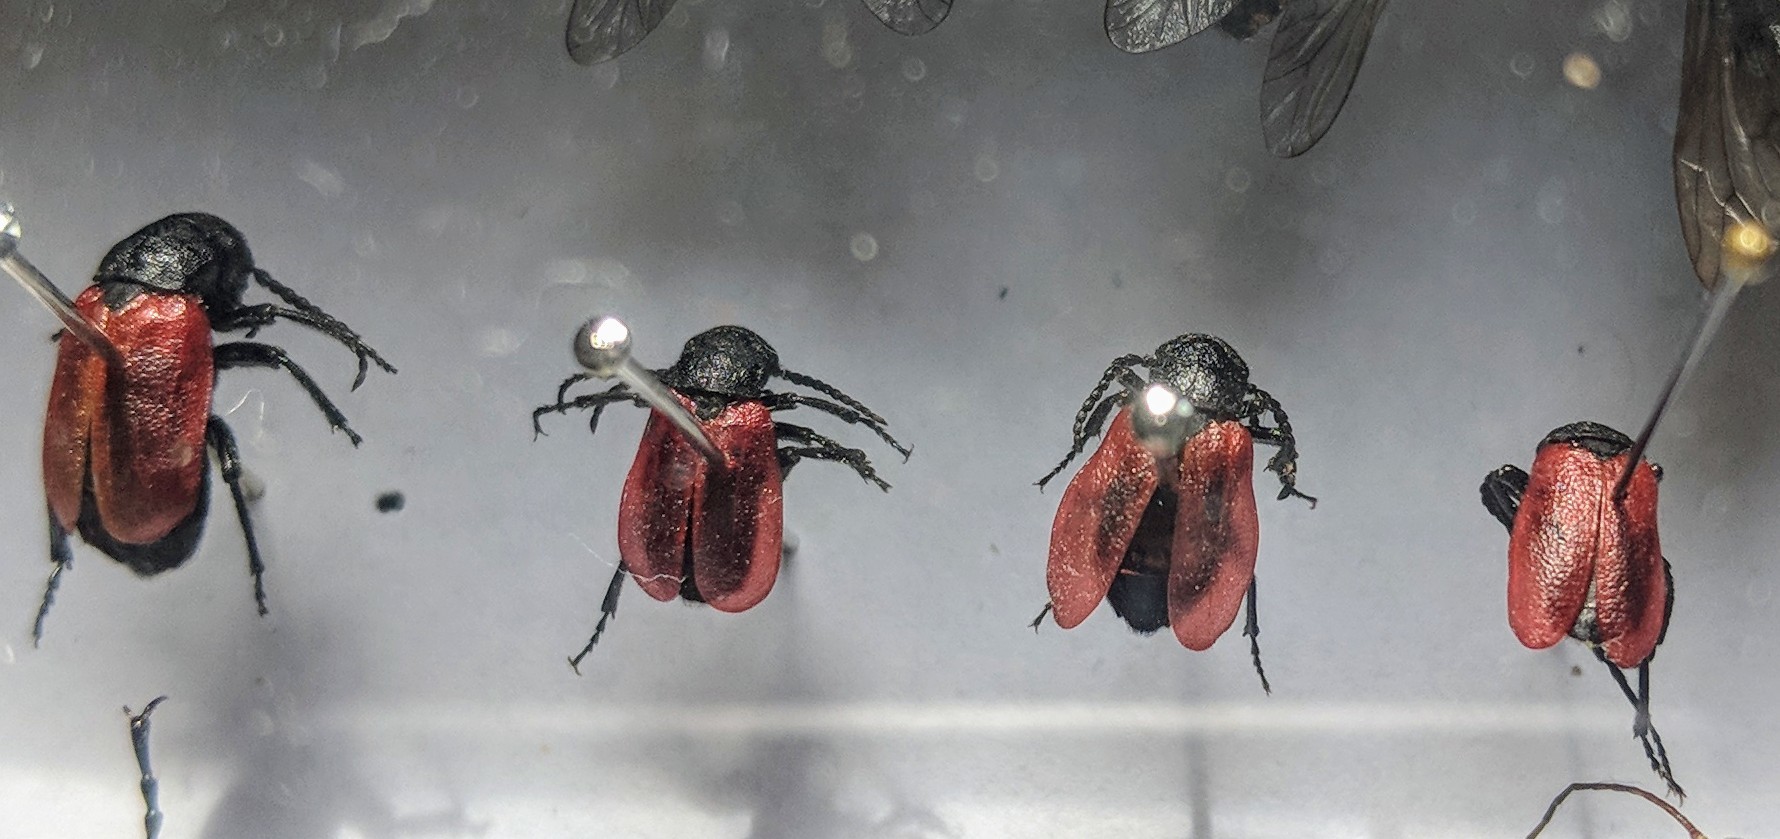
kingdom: Animalia
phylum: Arthropoda
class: Insecta
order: Coleoptera
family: Meloidae
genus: Tricrania
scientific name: Tricrania sanguinipennis
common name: Blood-winged blister beetle
